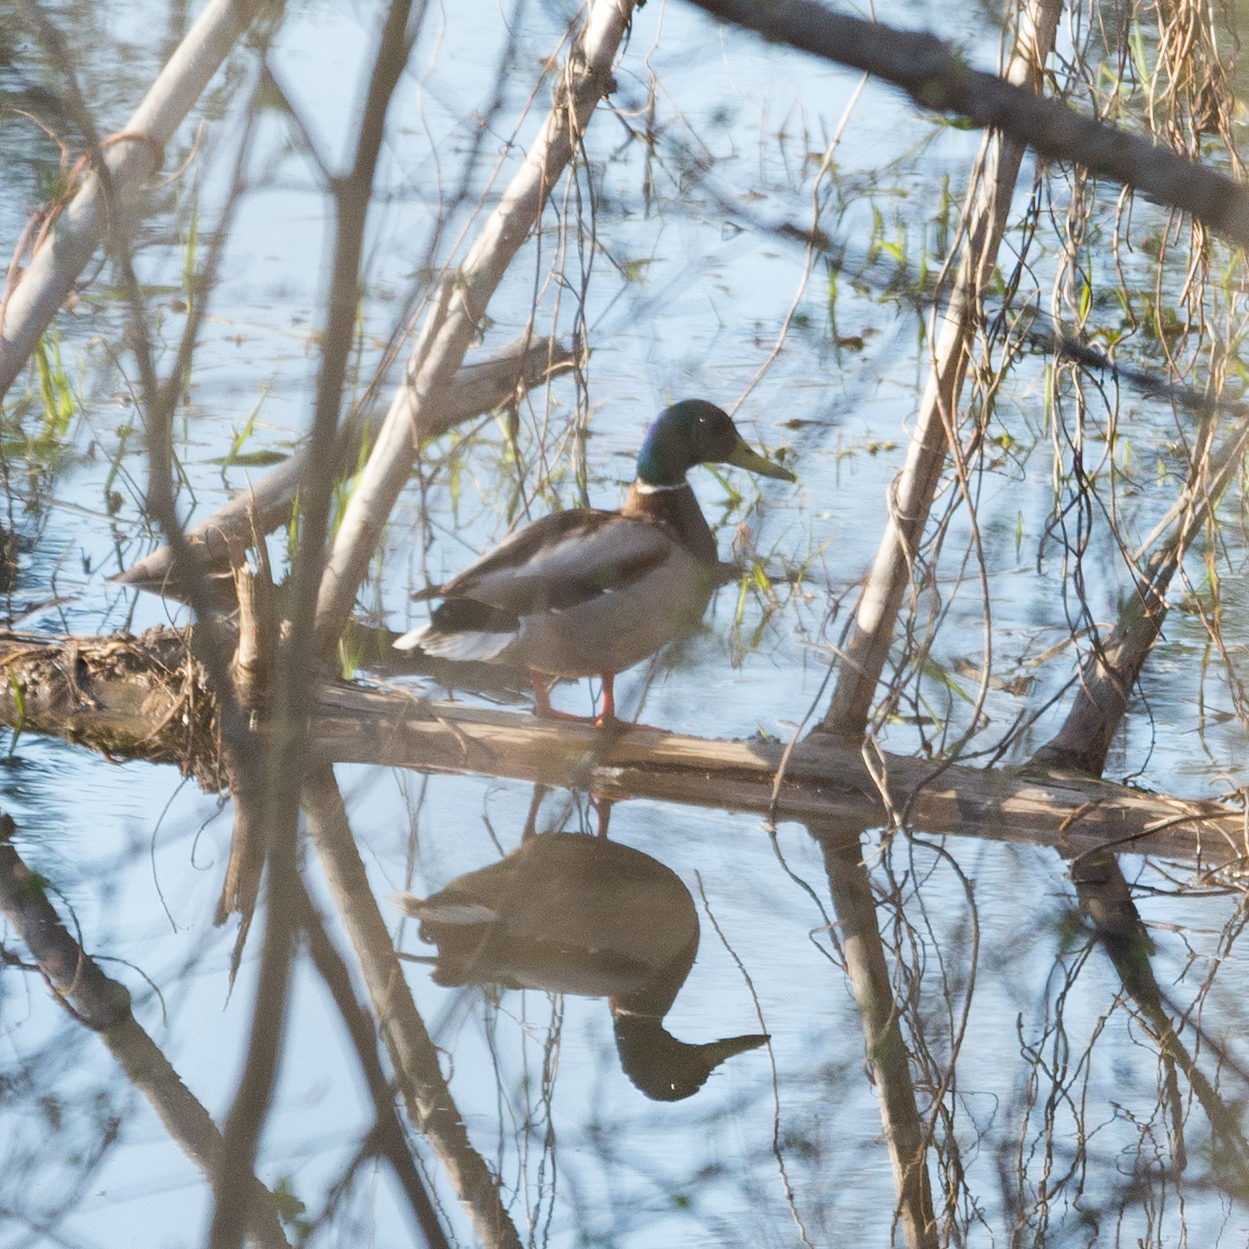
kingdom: Animalia
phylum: Chordata
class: Aves
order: Anseriformes
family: Anatidae
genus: Anas
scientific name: Anas platyrhynchos
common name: Mallard
